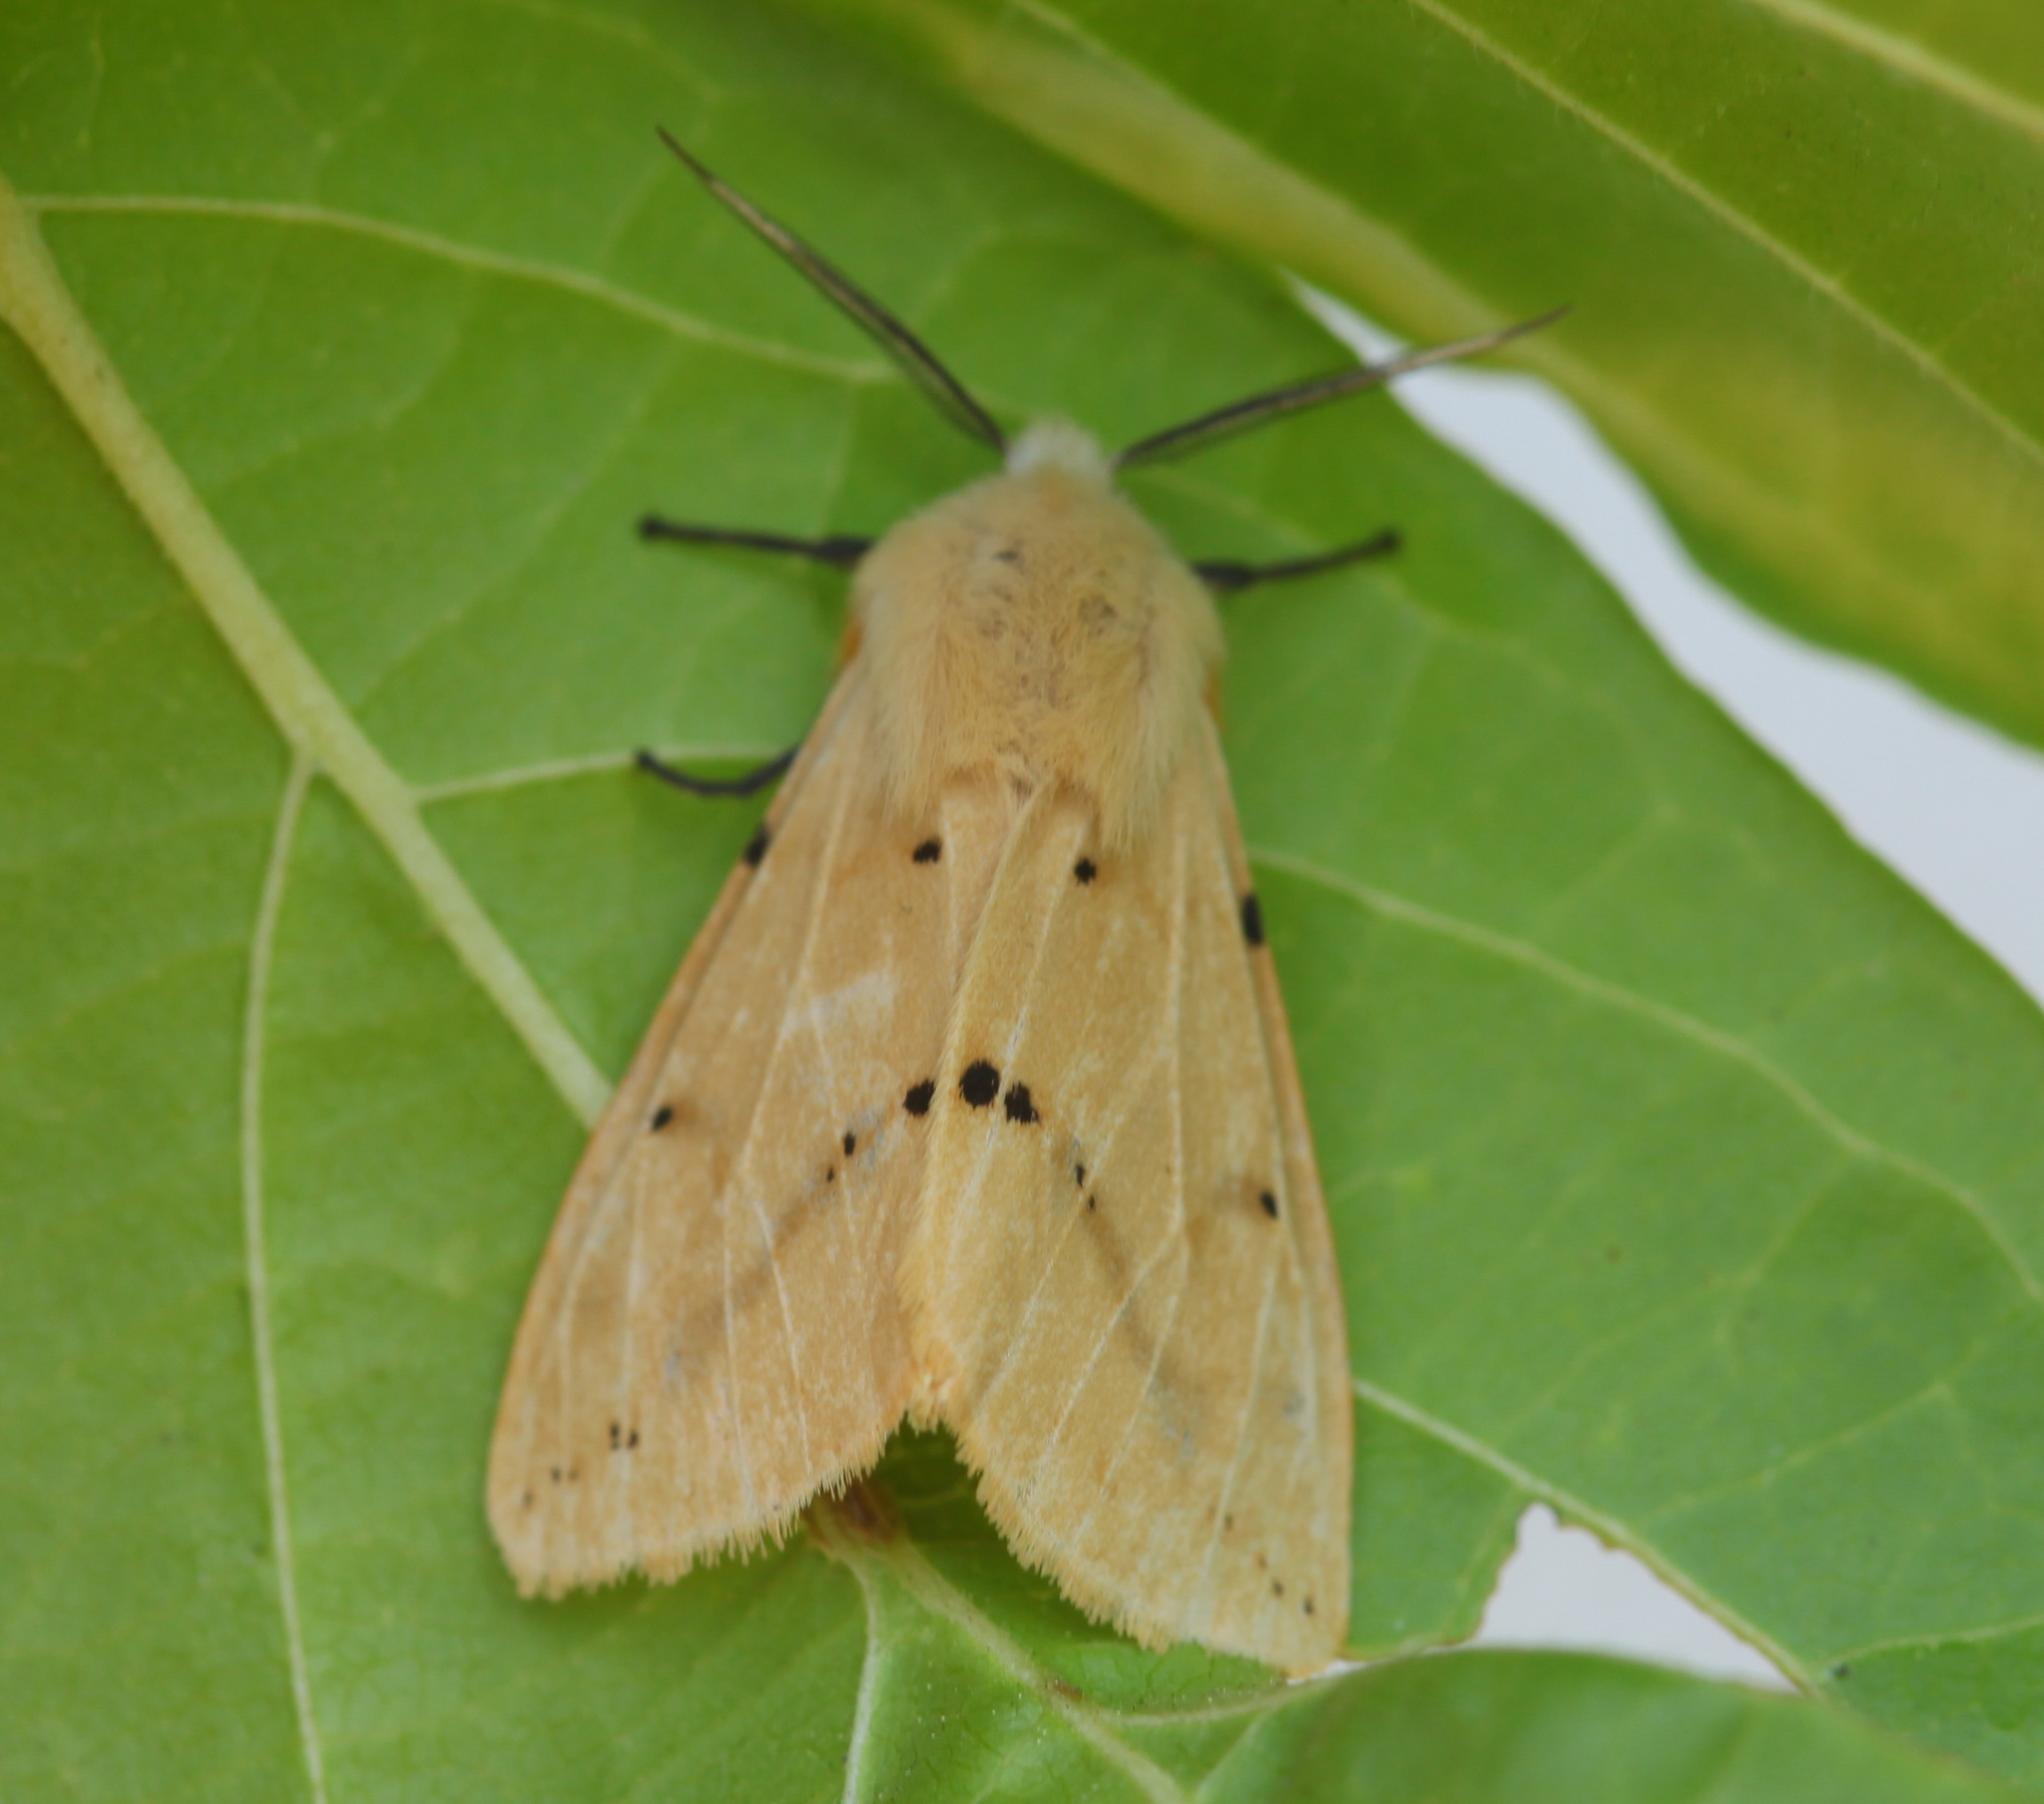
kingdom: Animalia
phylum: Arthropoda
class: Insecta
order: Lepidoptera
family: Erebidae
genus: Spilarctia
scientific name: Spilarctia seriatopunctata
